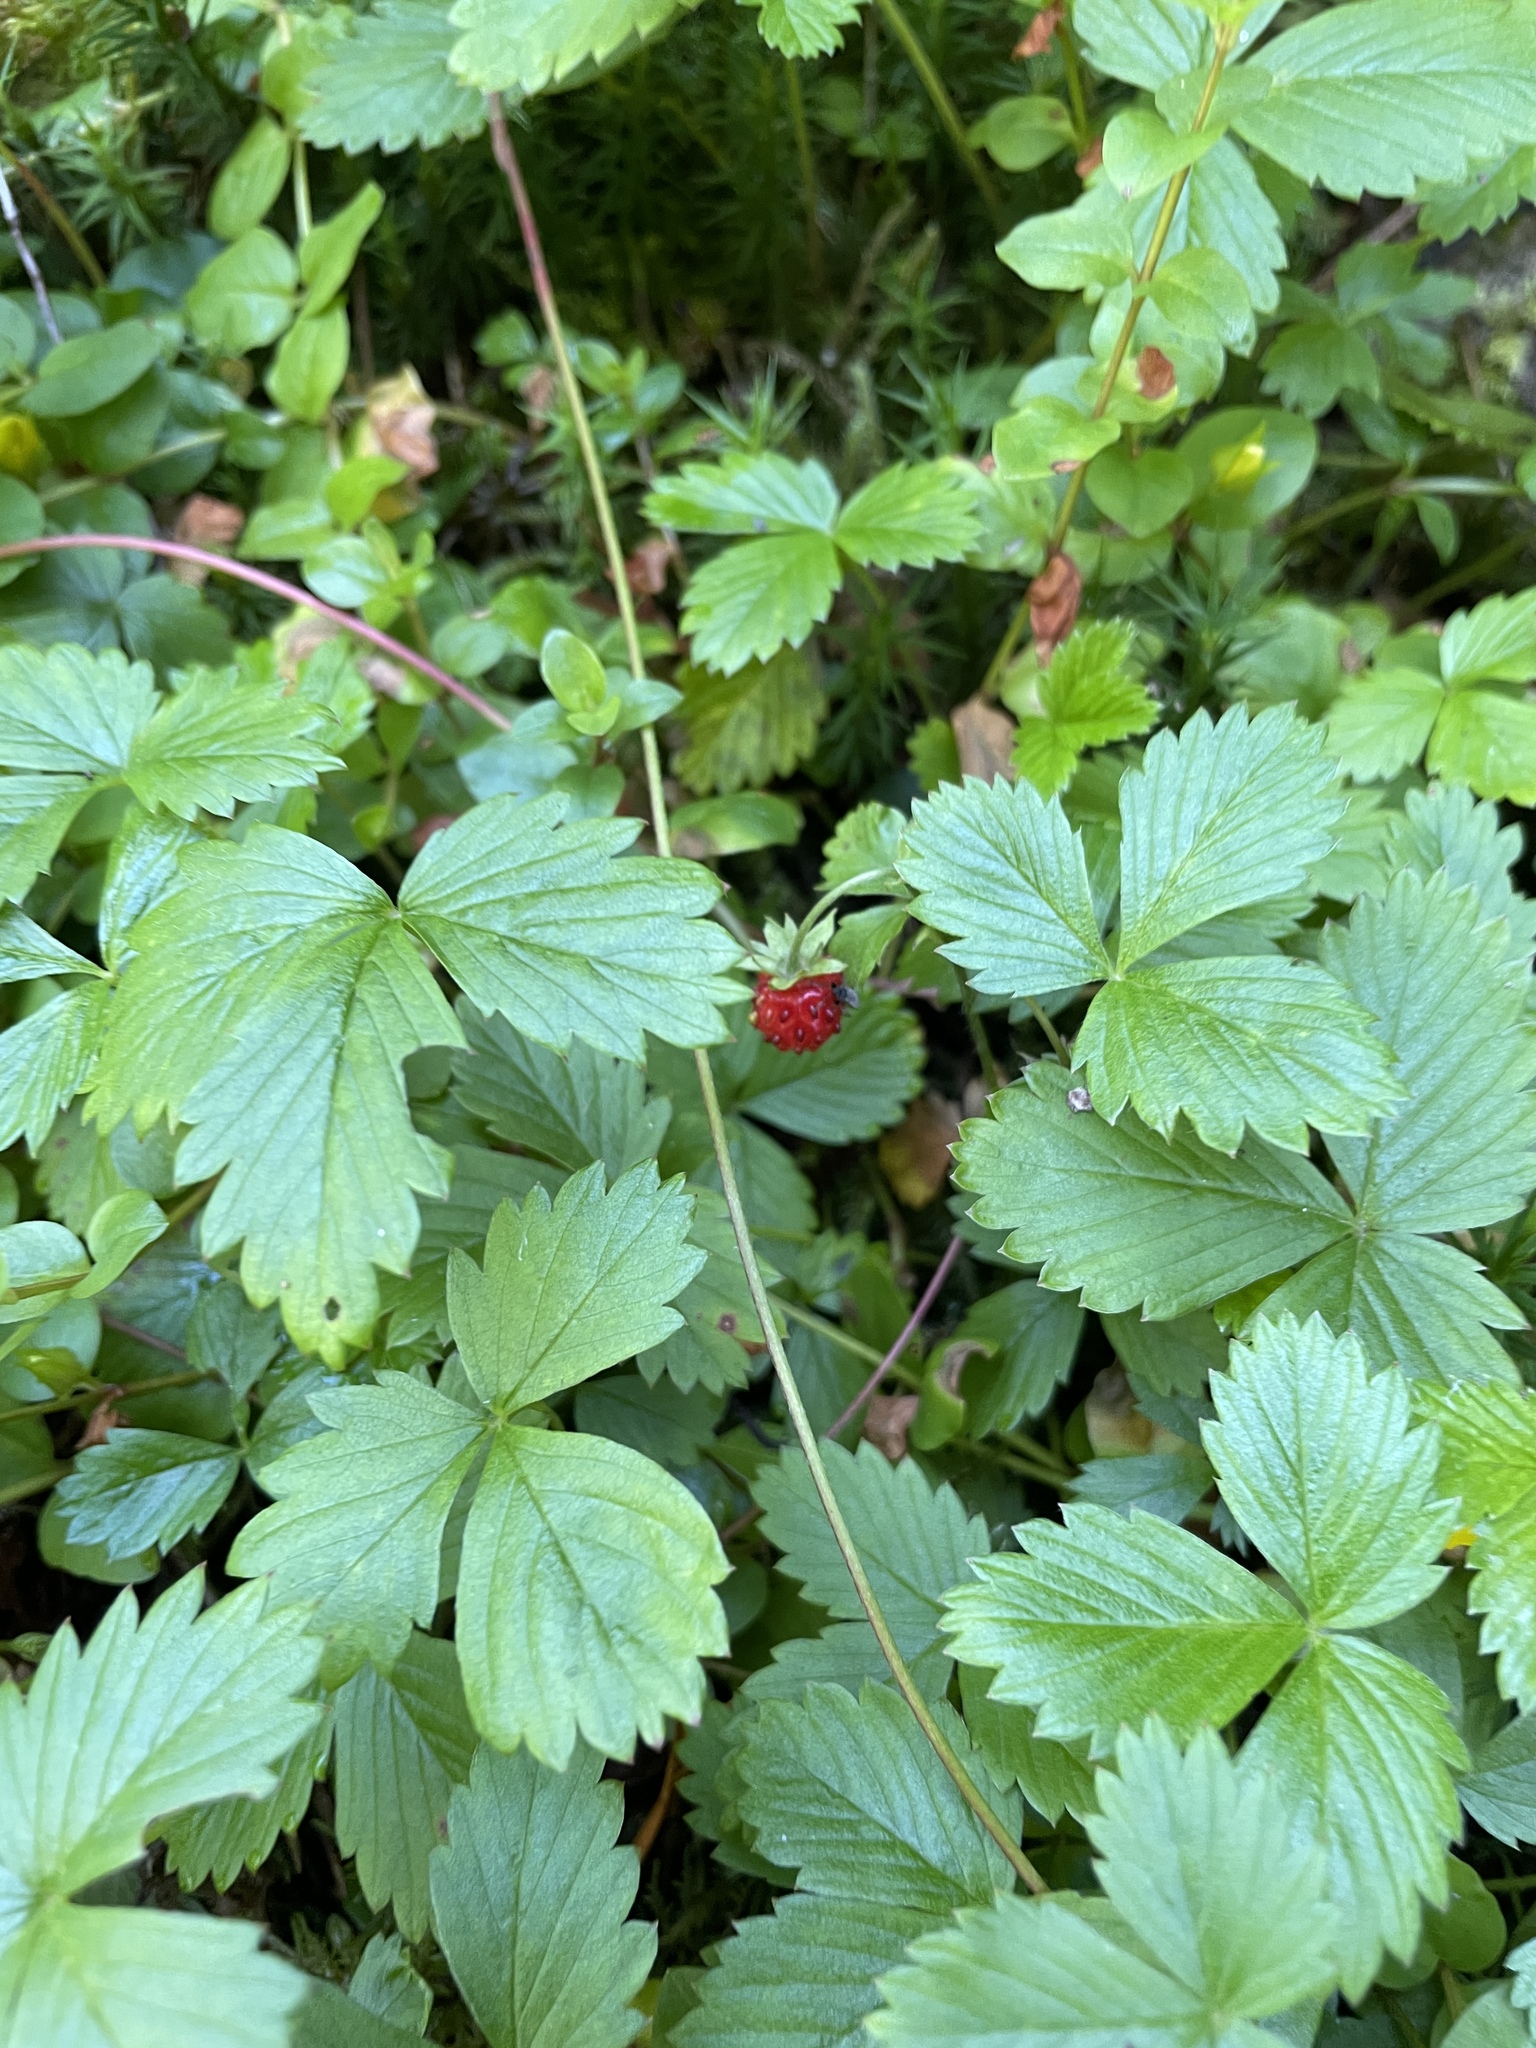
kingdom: Plantae
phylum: Tracheophyta
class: Magnoliopsida
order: Rosales
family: Rosaceae
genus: Fragaria
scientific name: Fragaria vesca
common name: Wild strawberry
